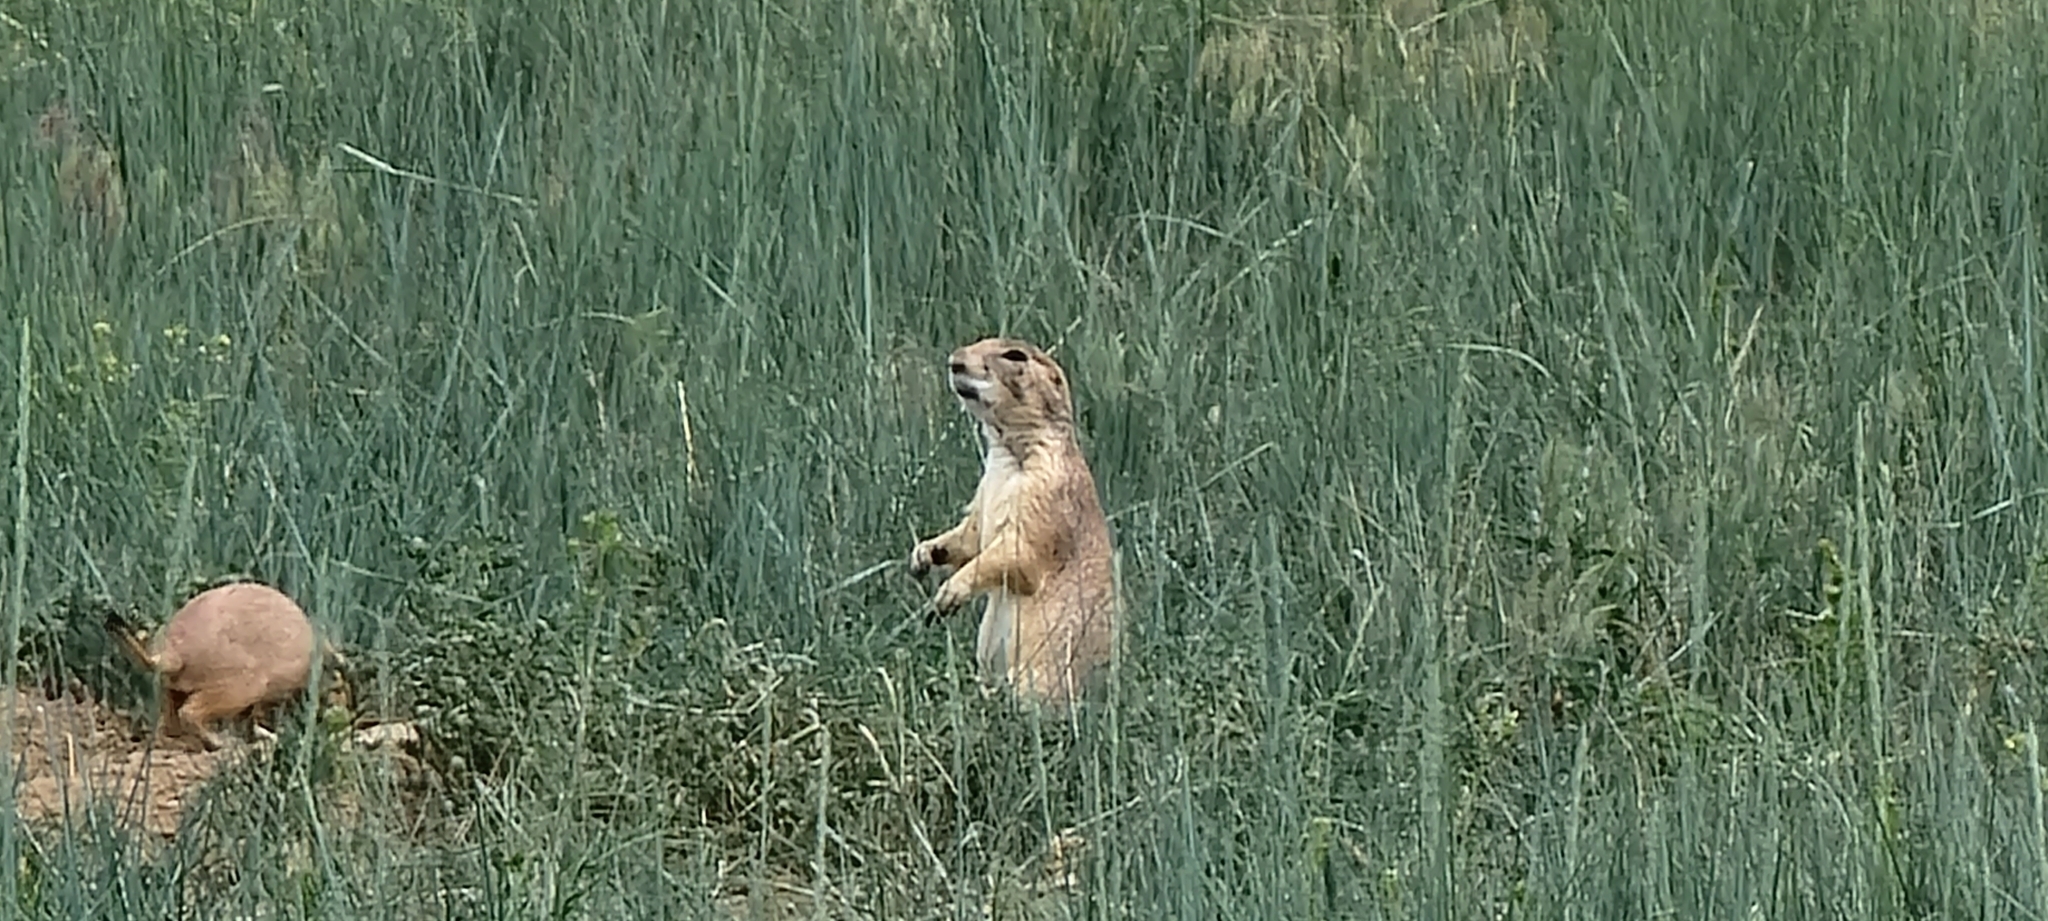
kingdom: Animalia
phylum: Chordata
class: Mammalia
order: Rodentia
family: Sciuridae
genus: Cynomys
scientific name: Cynomys ludovicianus
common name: Black-tailed prairie dog
